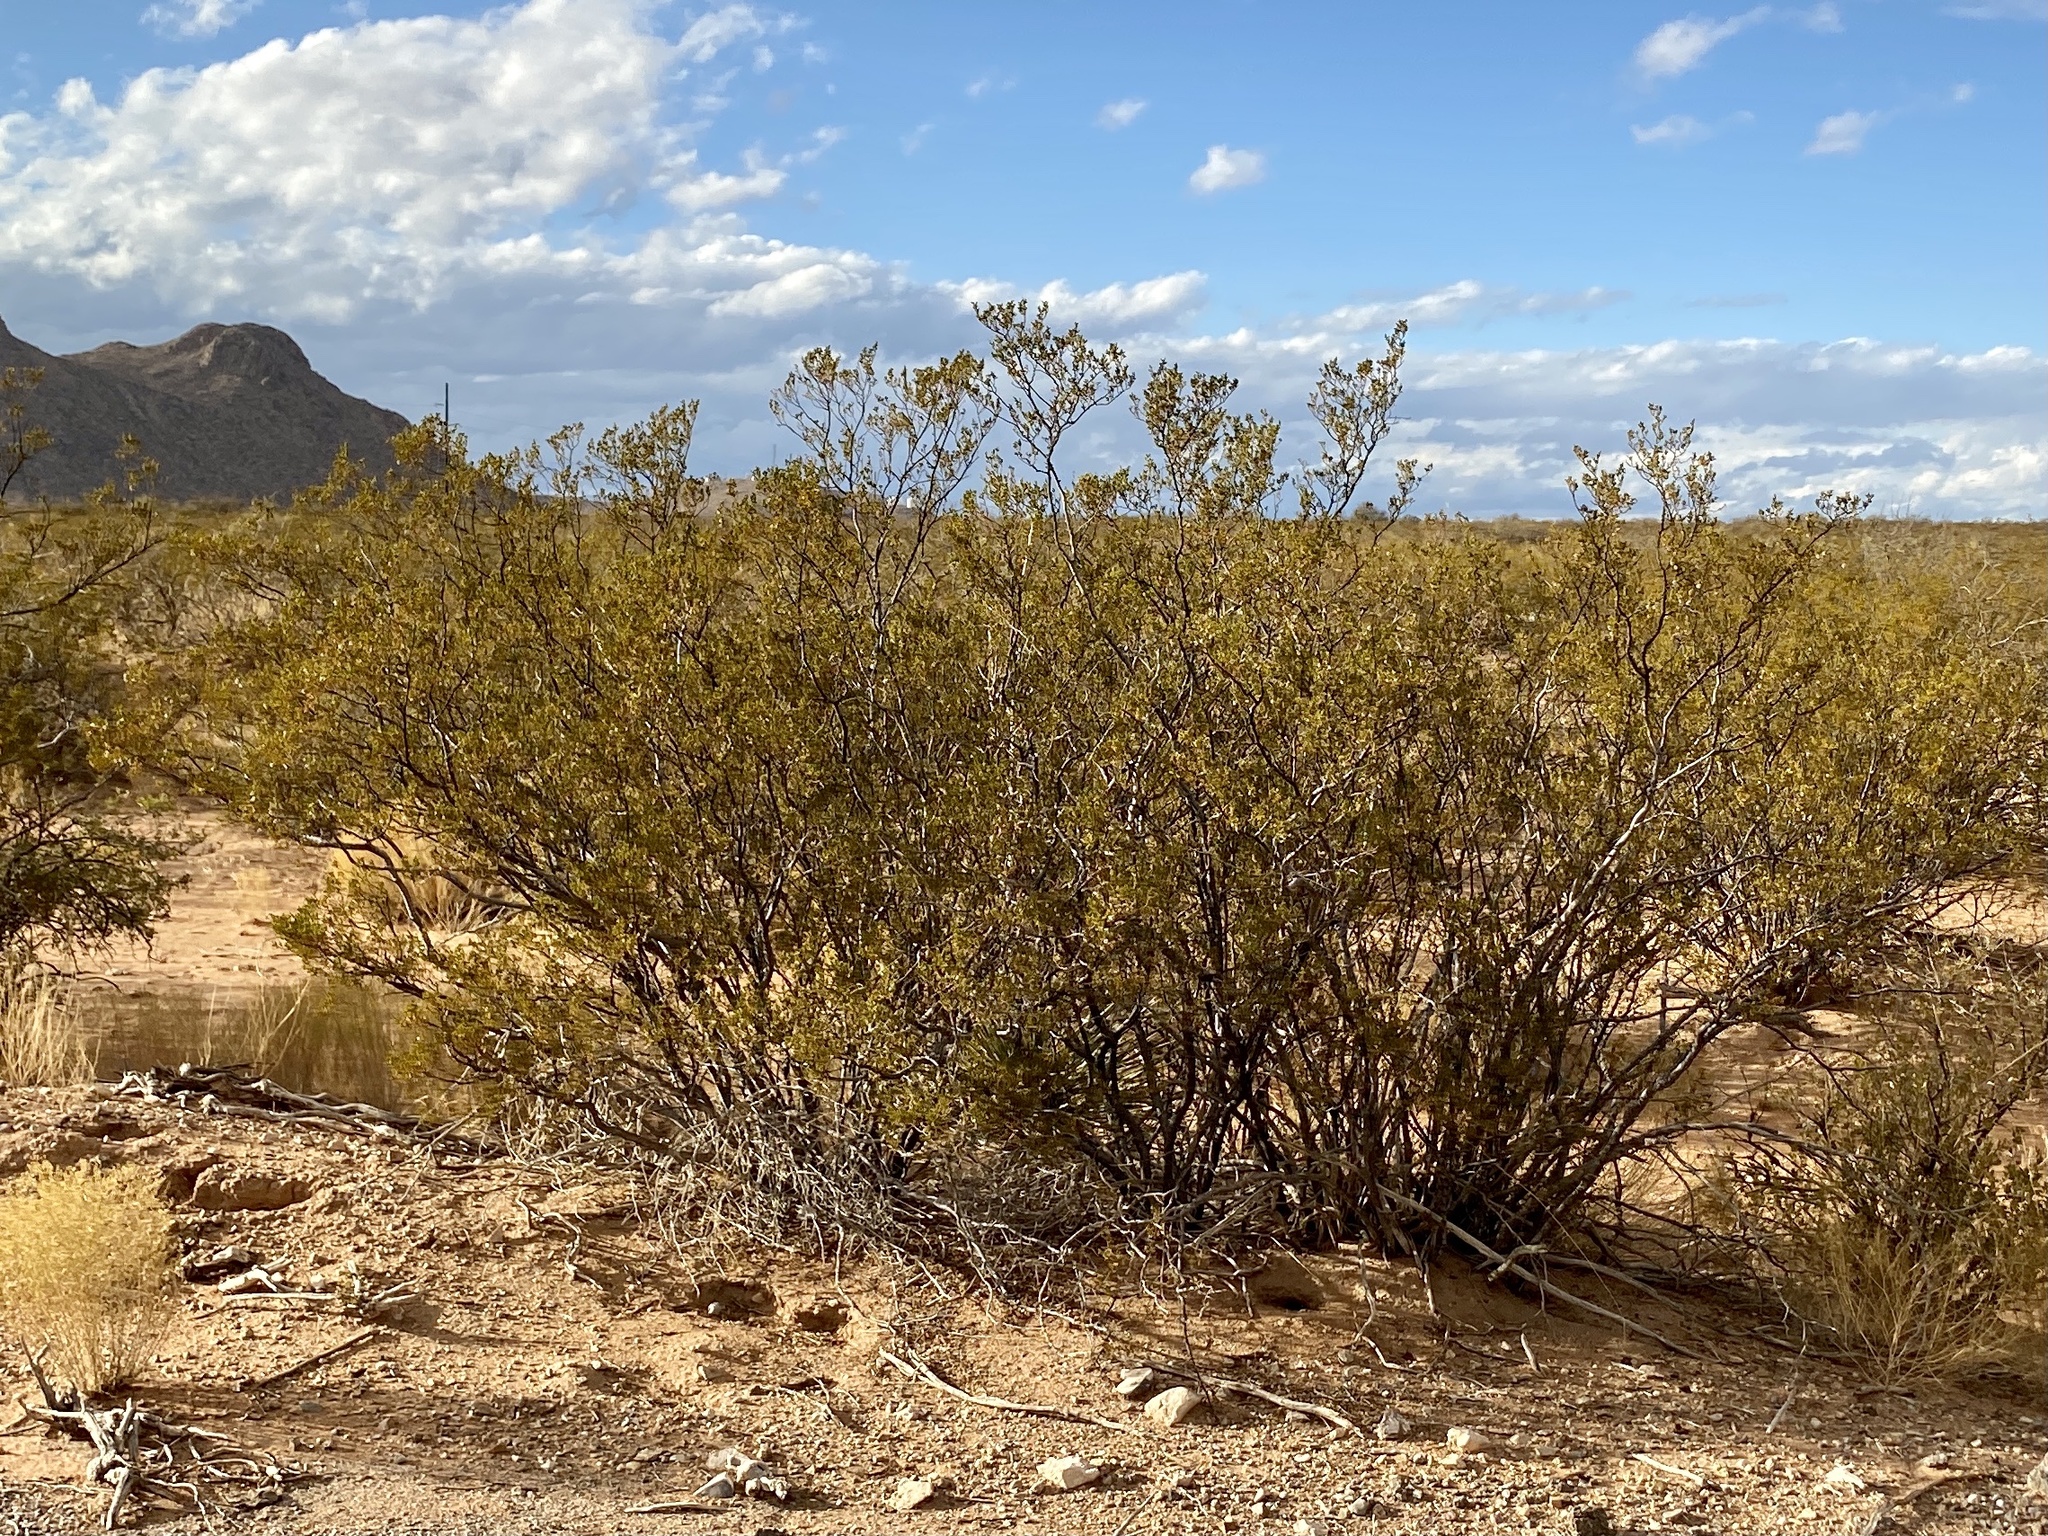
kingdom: Plantae
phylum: Tracheophyta
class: Magnoliopsida
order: Zygophyllales
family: Zygophyllaceae
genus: Larrea
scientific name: Larrea tridentata
